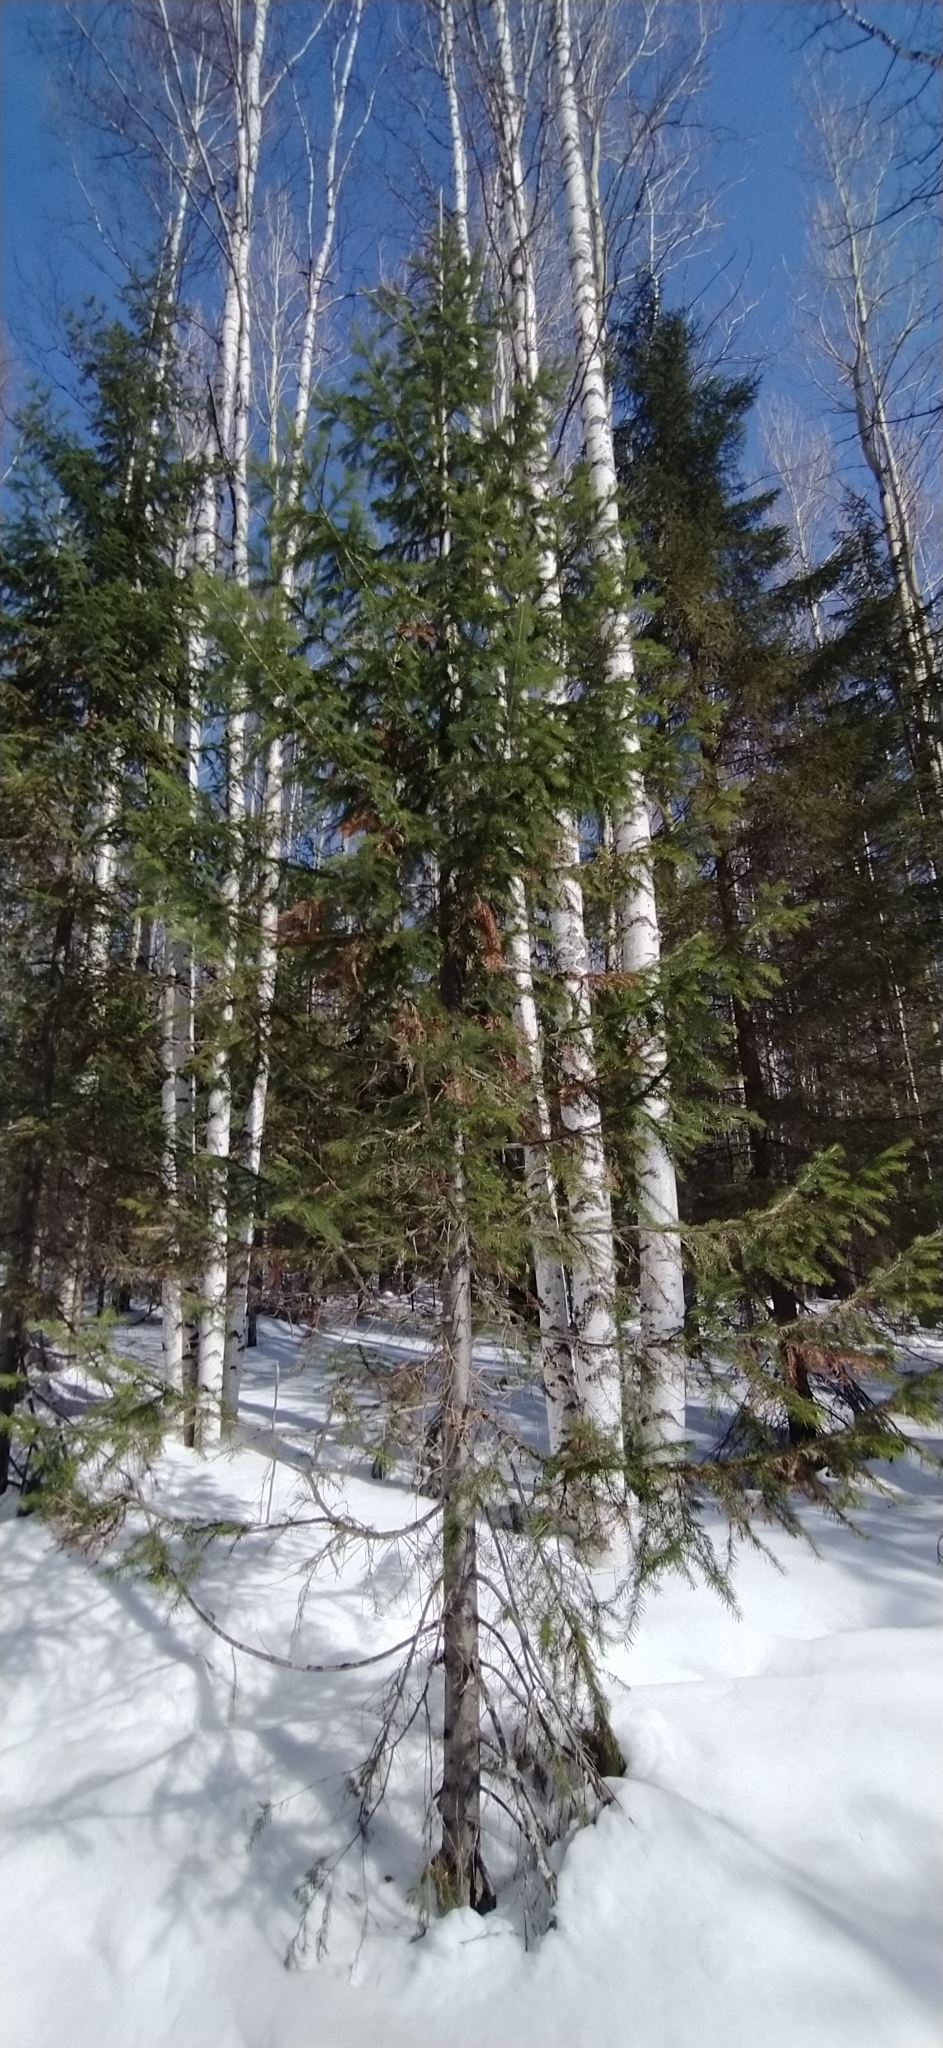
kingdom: Plantae
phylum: Tracheophyta
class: Pinopsida
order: Pinales
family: Pinaceae
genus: Abies
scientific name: Abies sibirica
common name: Siberian fir
